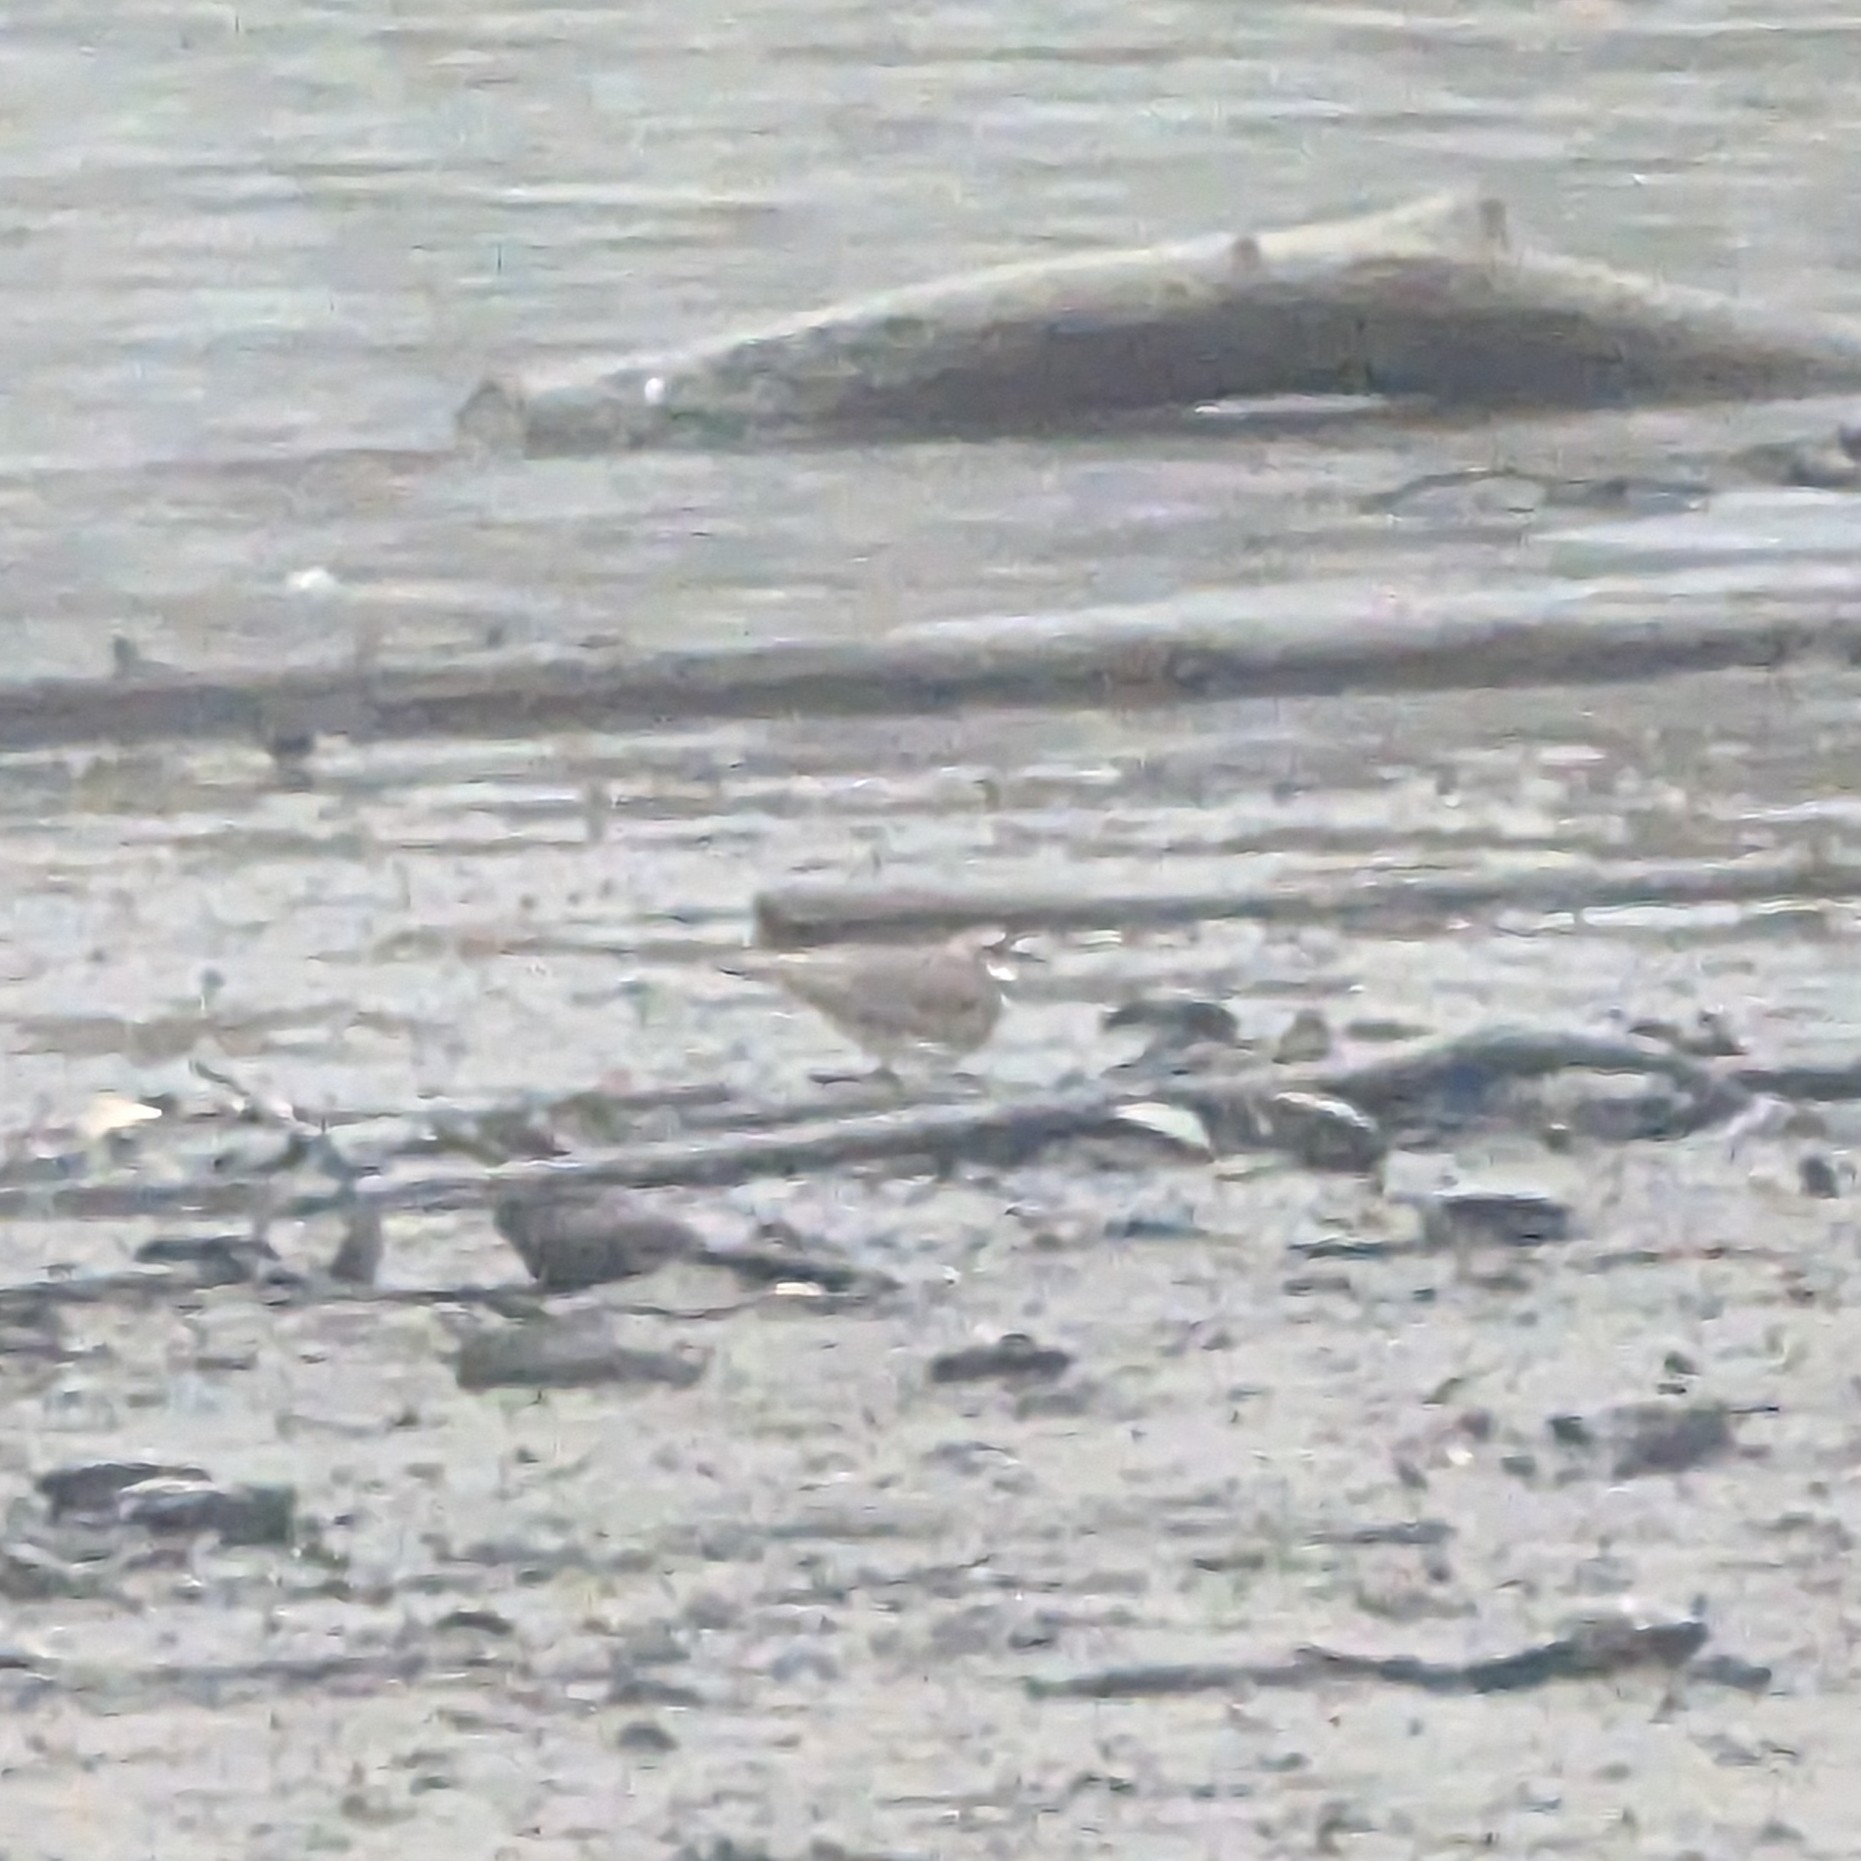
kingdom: Animalia
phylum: Chordata
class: Aves
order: Charadriiformes
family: Charadriidae
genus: Charadrius
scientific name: Charadrius vociferus
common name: Killdeer
